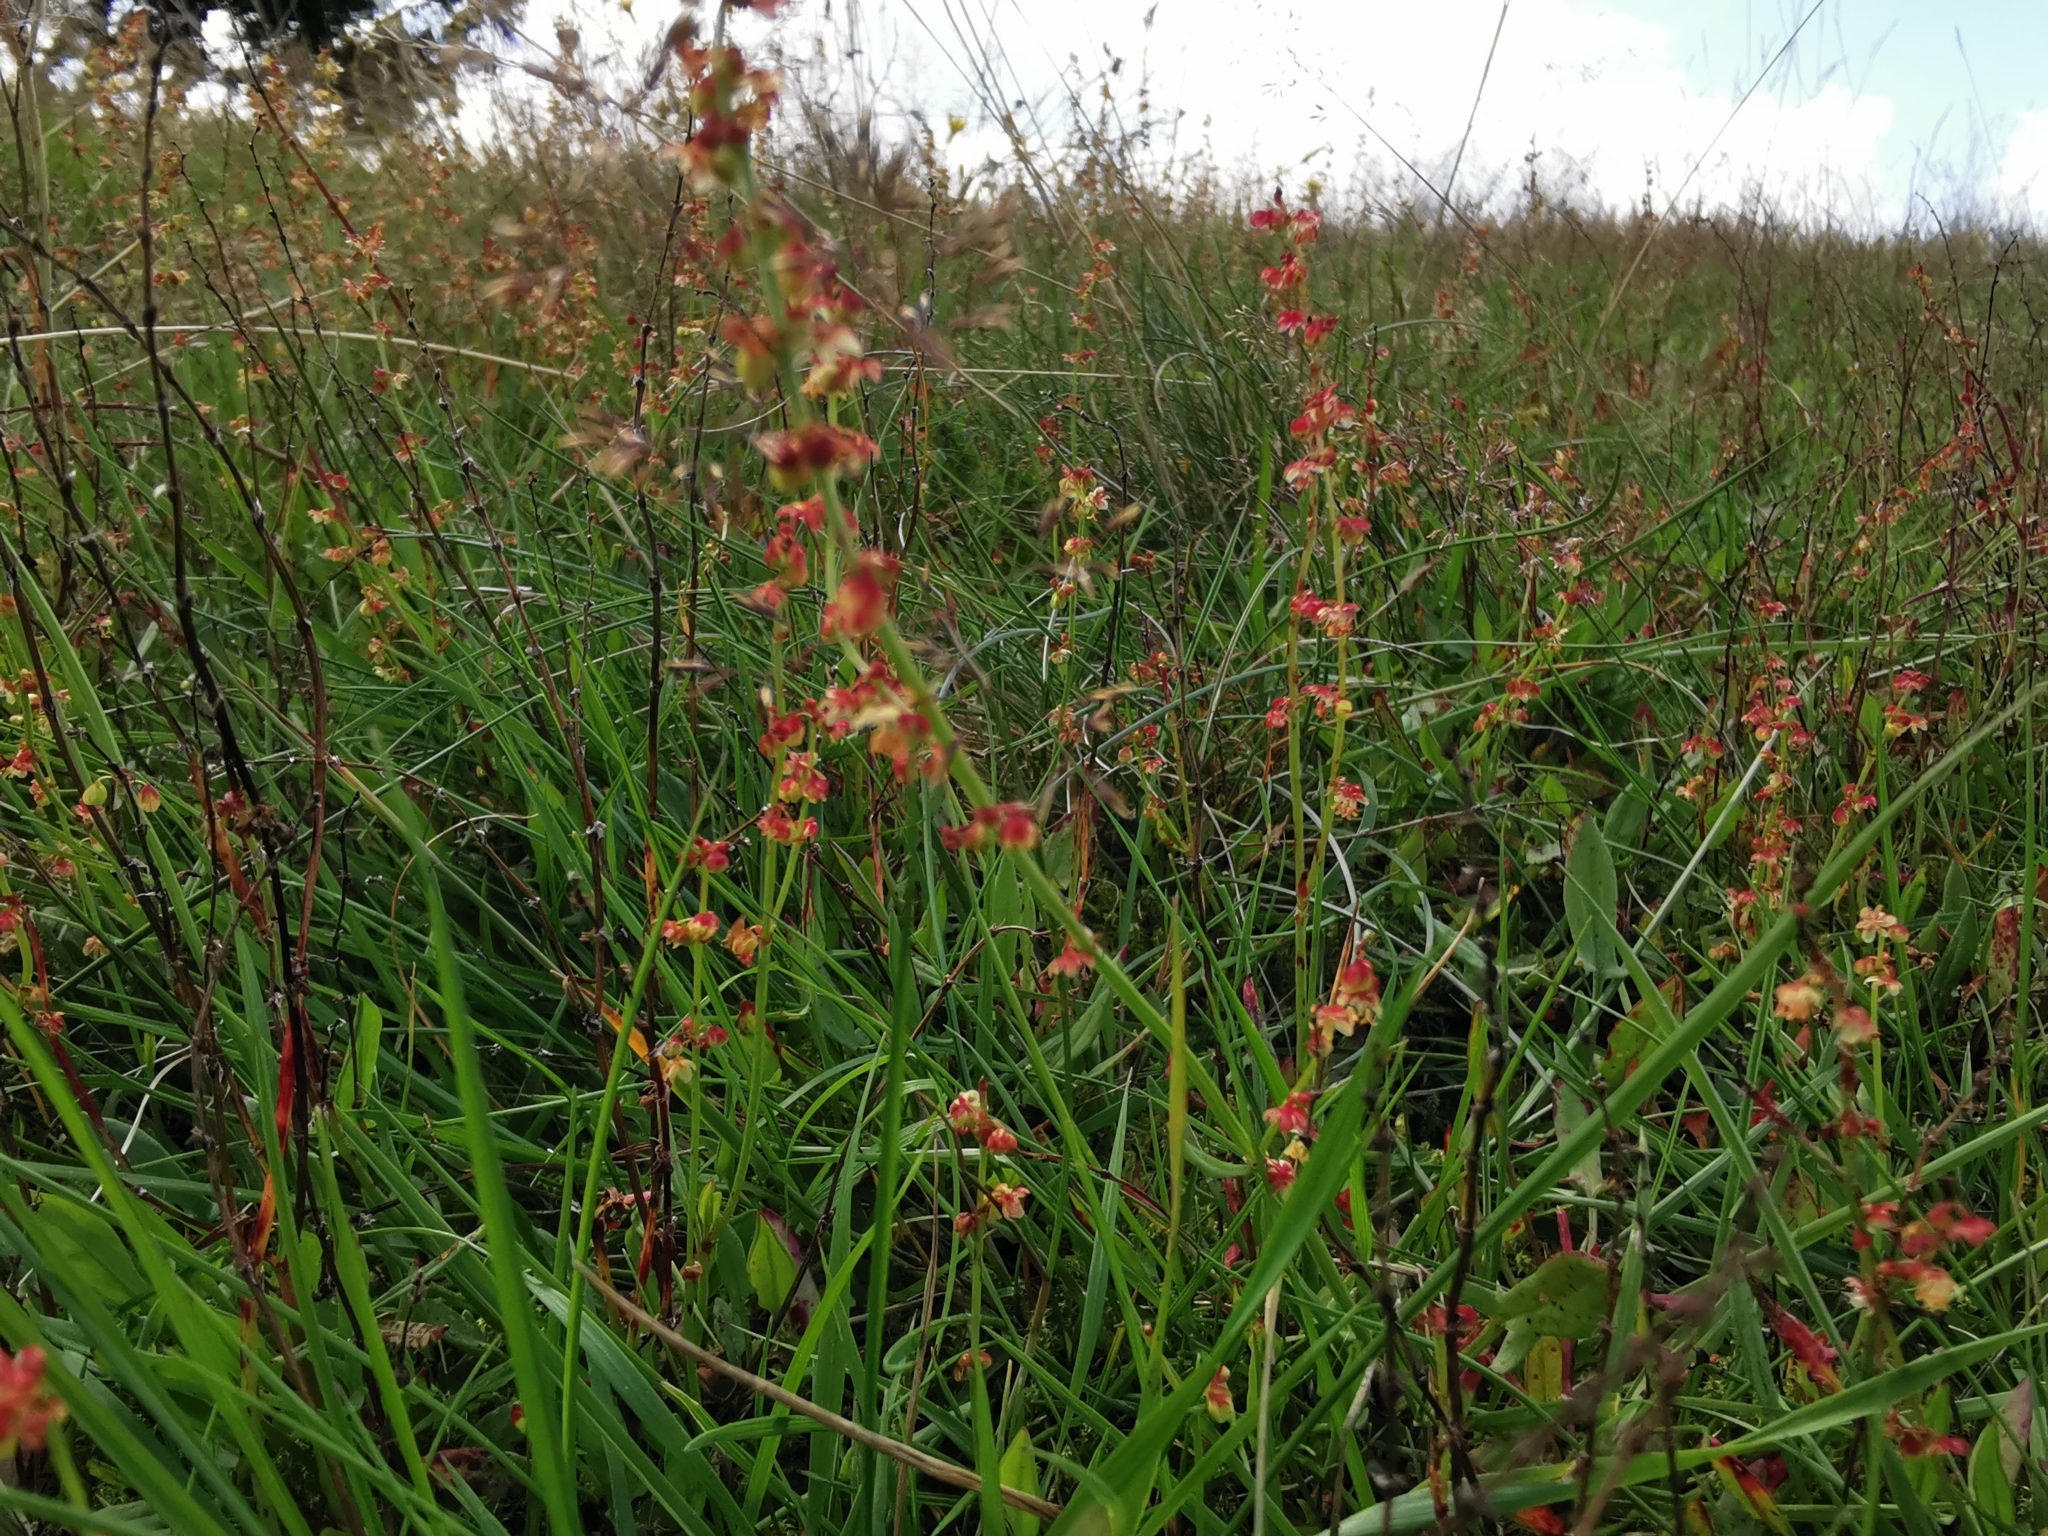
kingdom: Plantae
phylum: Tracheophyta
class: Magnoliopsida
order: Caryophyllales
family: Polygonaceae
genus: Rumex
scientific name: Rumex acetosella
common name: Common sheep sorrel
